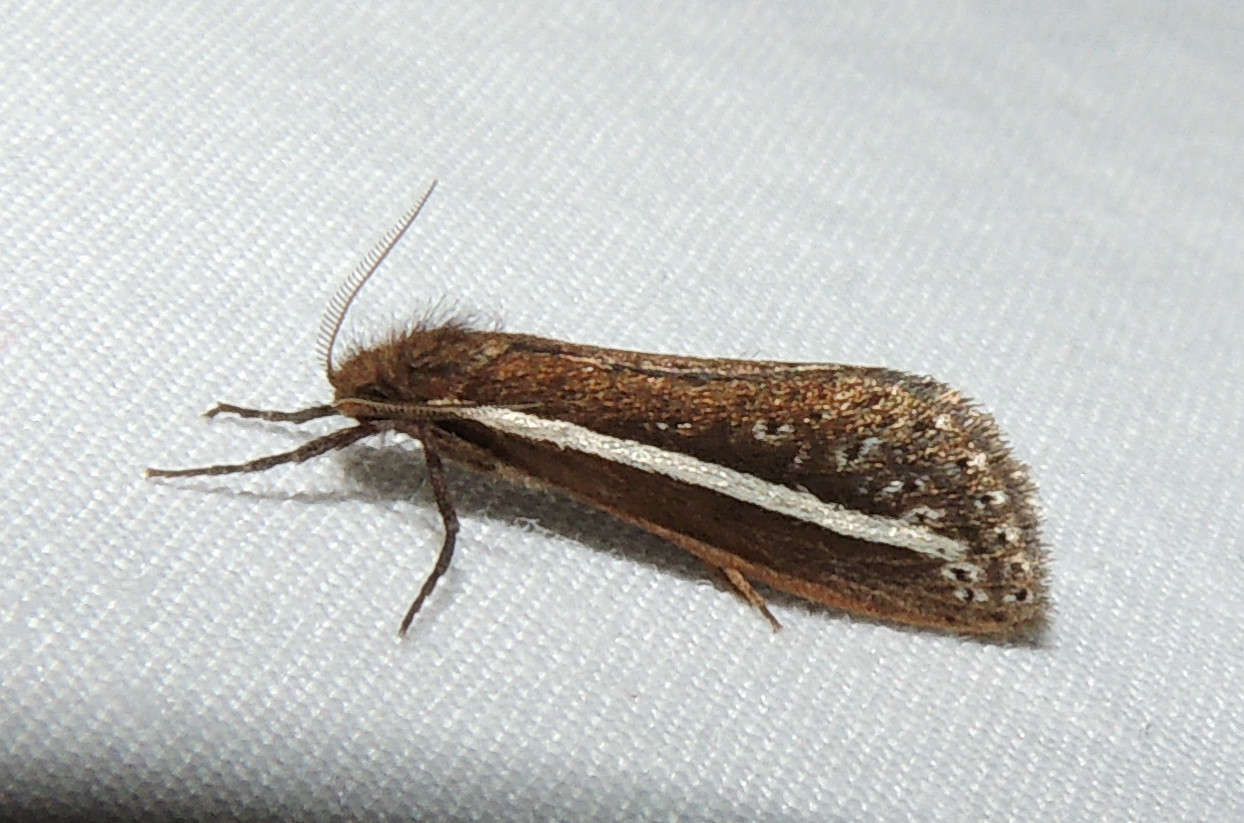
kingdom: Animalia
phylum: Arthropoda
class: Insecta
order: Lepidoptera
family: Hepialidae
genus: Fraus
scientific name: Fraus pteromela
